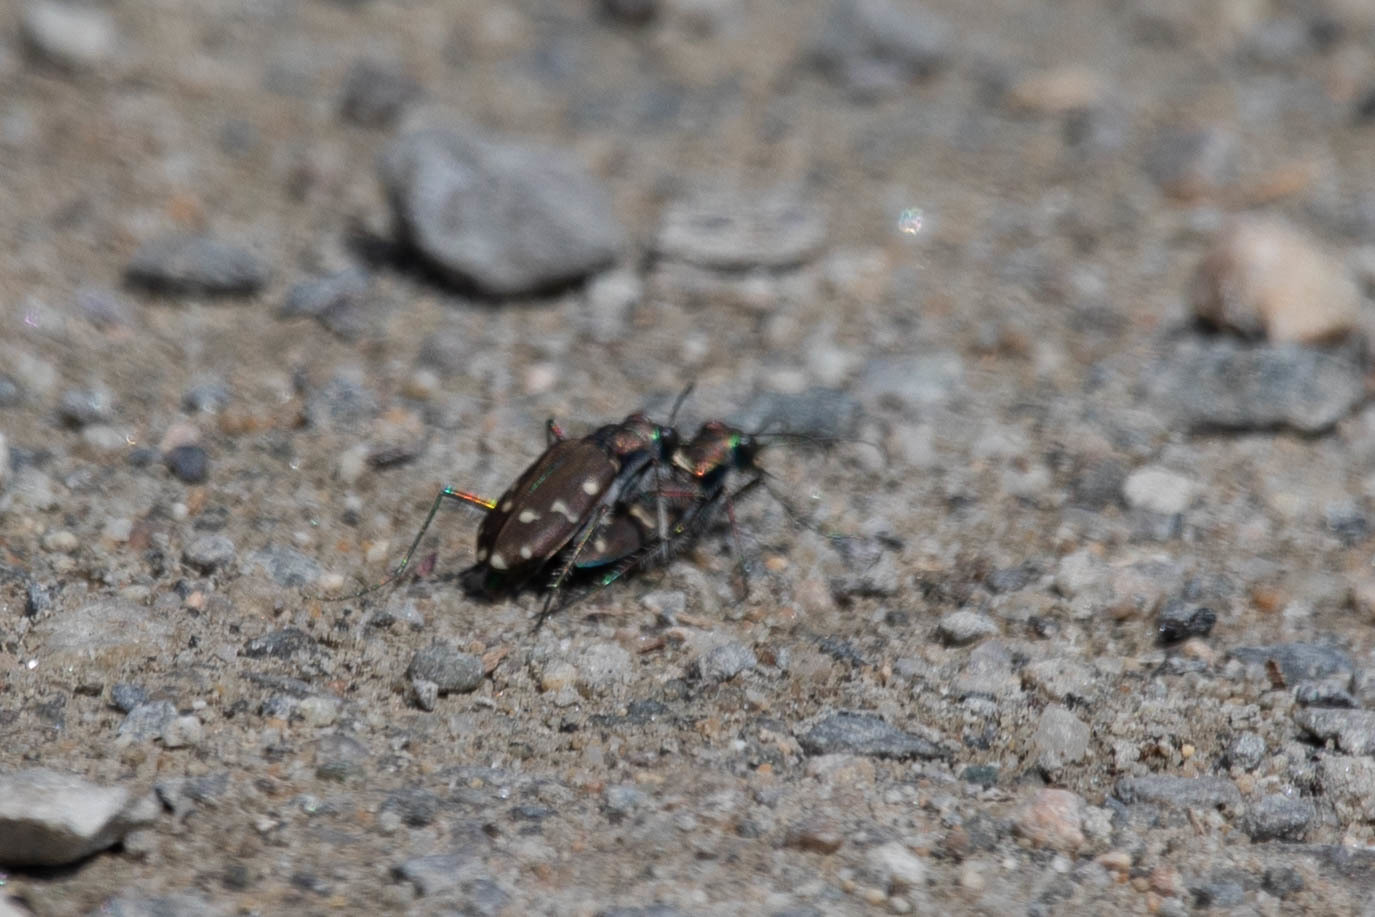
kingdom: Animalia
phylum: Arthropoda
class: Insecta
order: Coleoptera
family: Carabidae
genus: Cicindela
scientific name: Cicindela oregona
